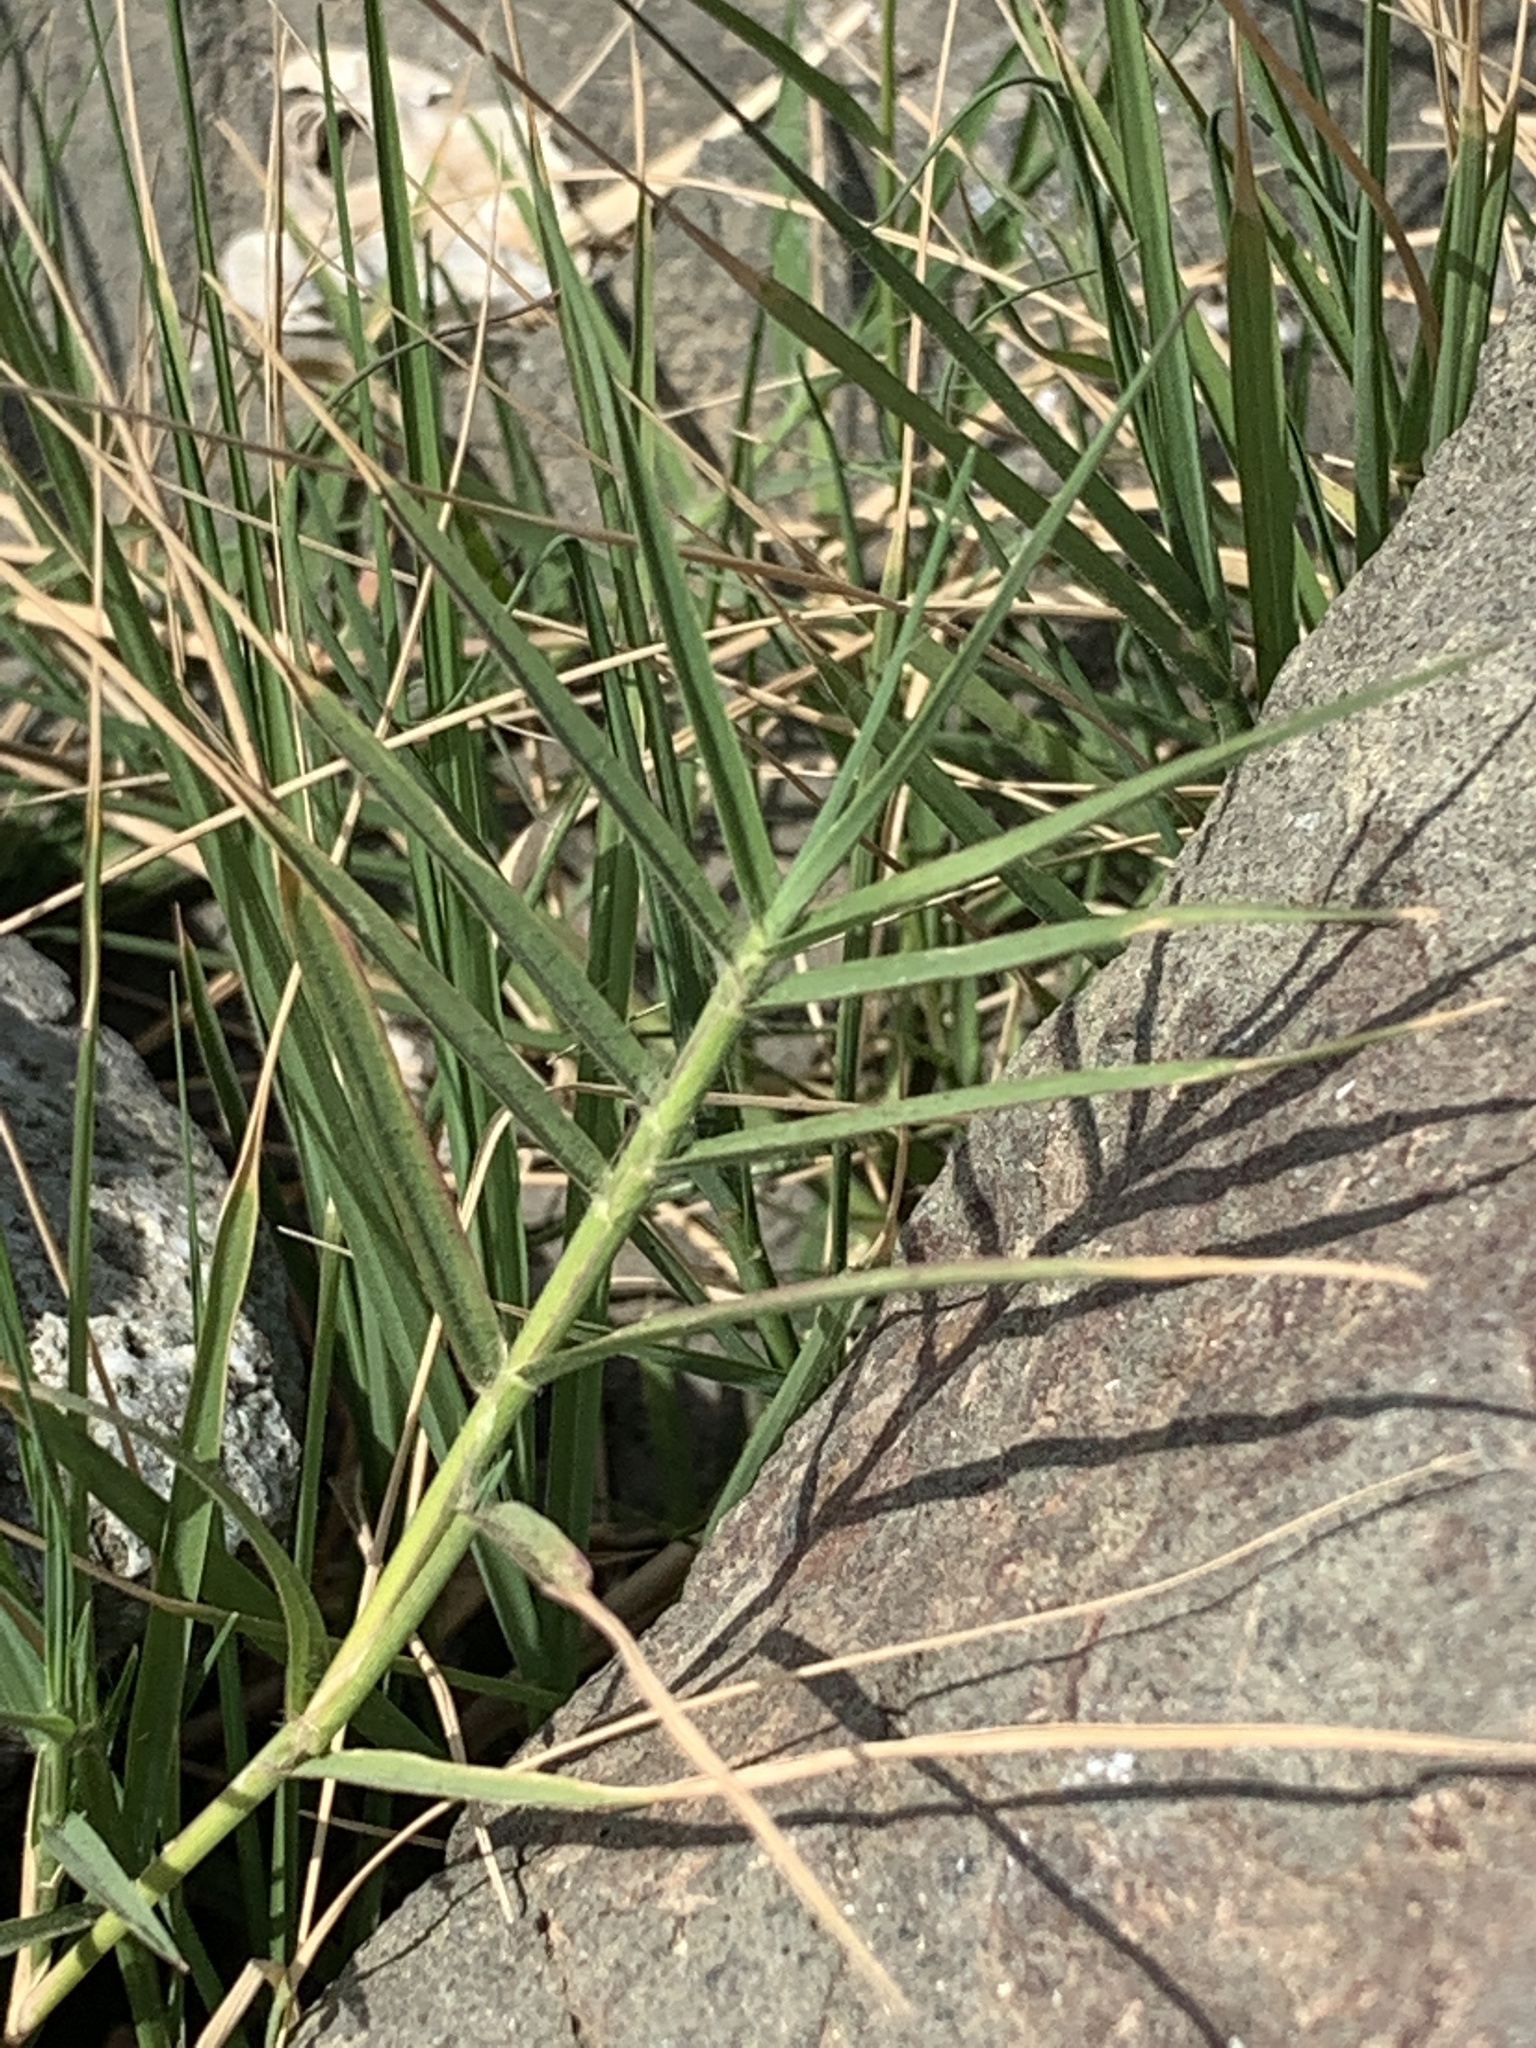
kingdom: Plantae
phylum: Tracheophyta
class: Liliopsida
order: Poales
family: Poaceae
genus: Distichlis
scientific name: Distichlis spicata
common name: Saltgrass
